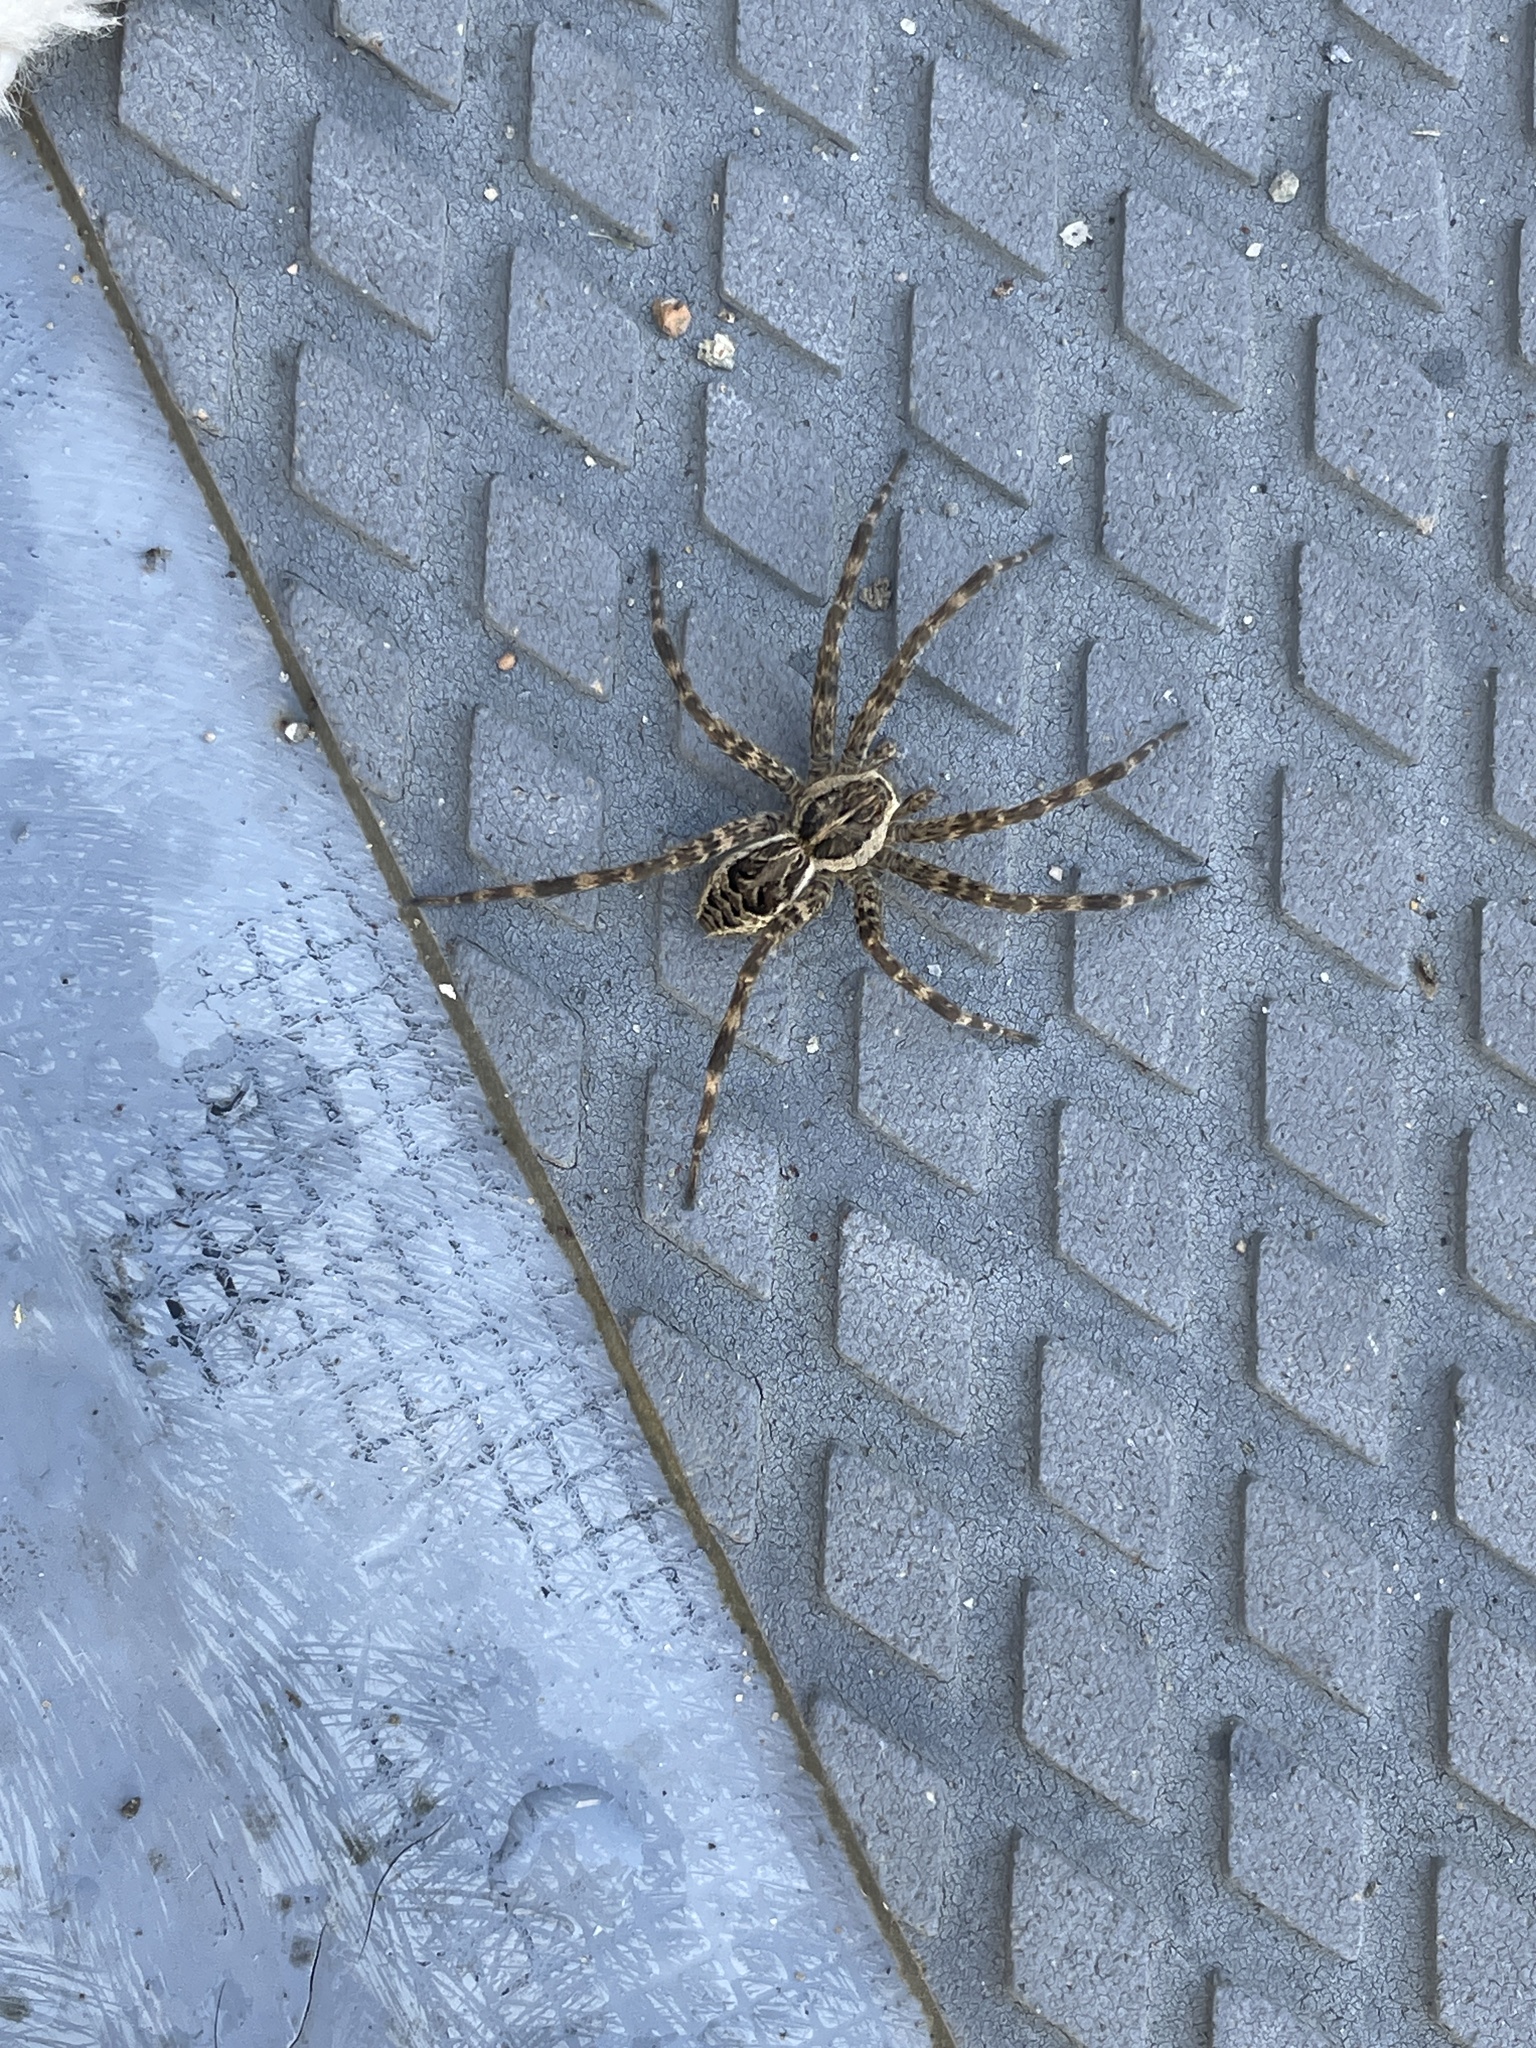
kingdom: Animalia
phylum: Arthropoda
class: Arachnida
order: Araneae
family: Pisauridae
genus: Dolomedes
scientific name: Dolomedes scriptus
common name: Striped fishing spider
